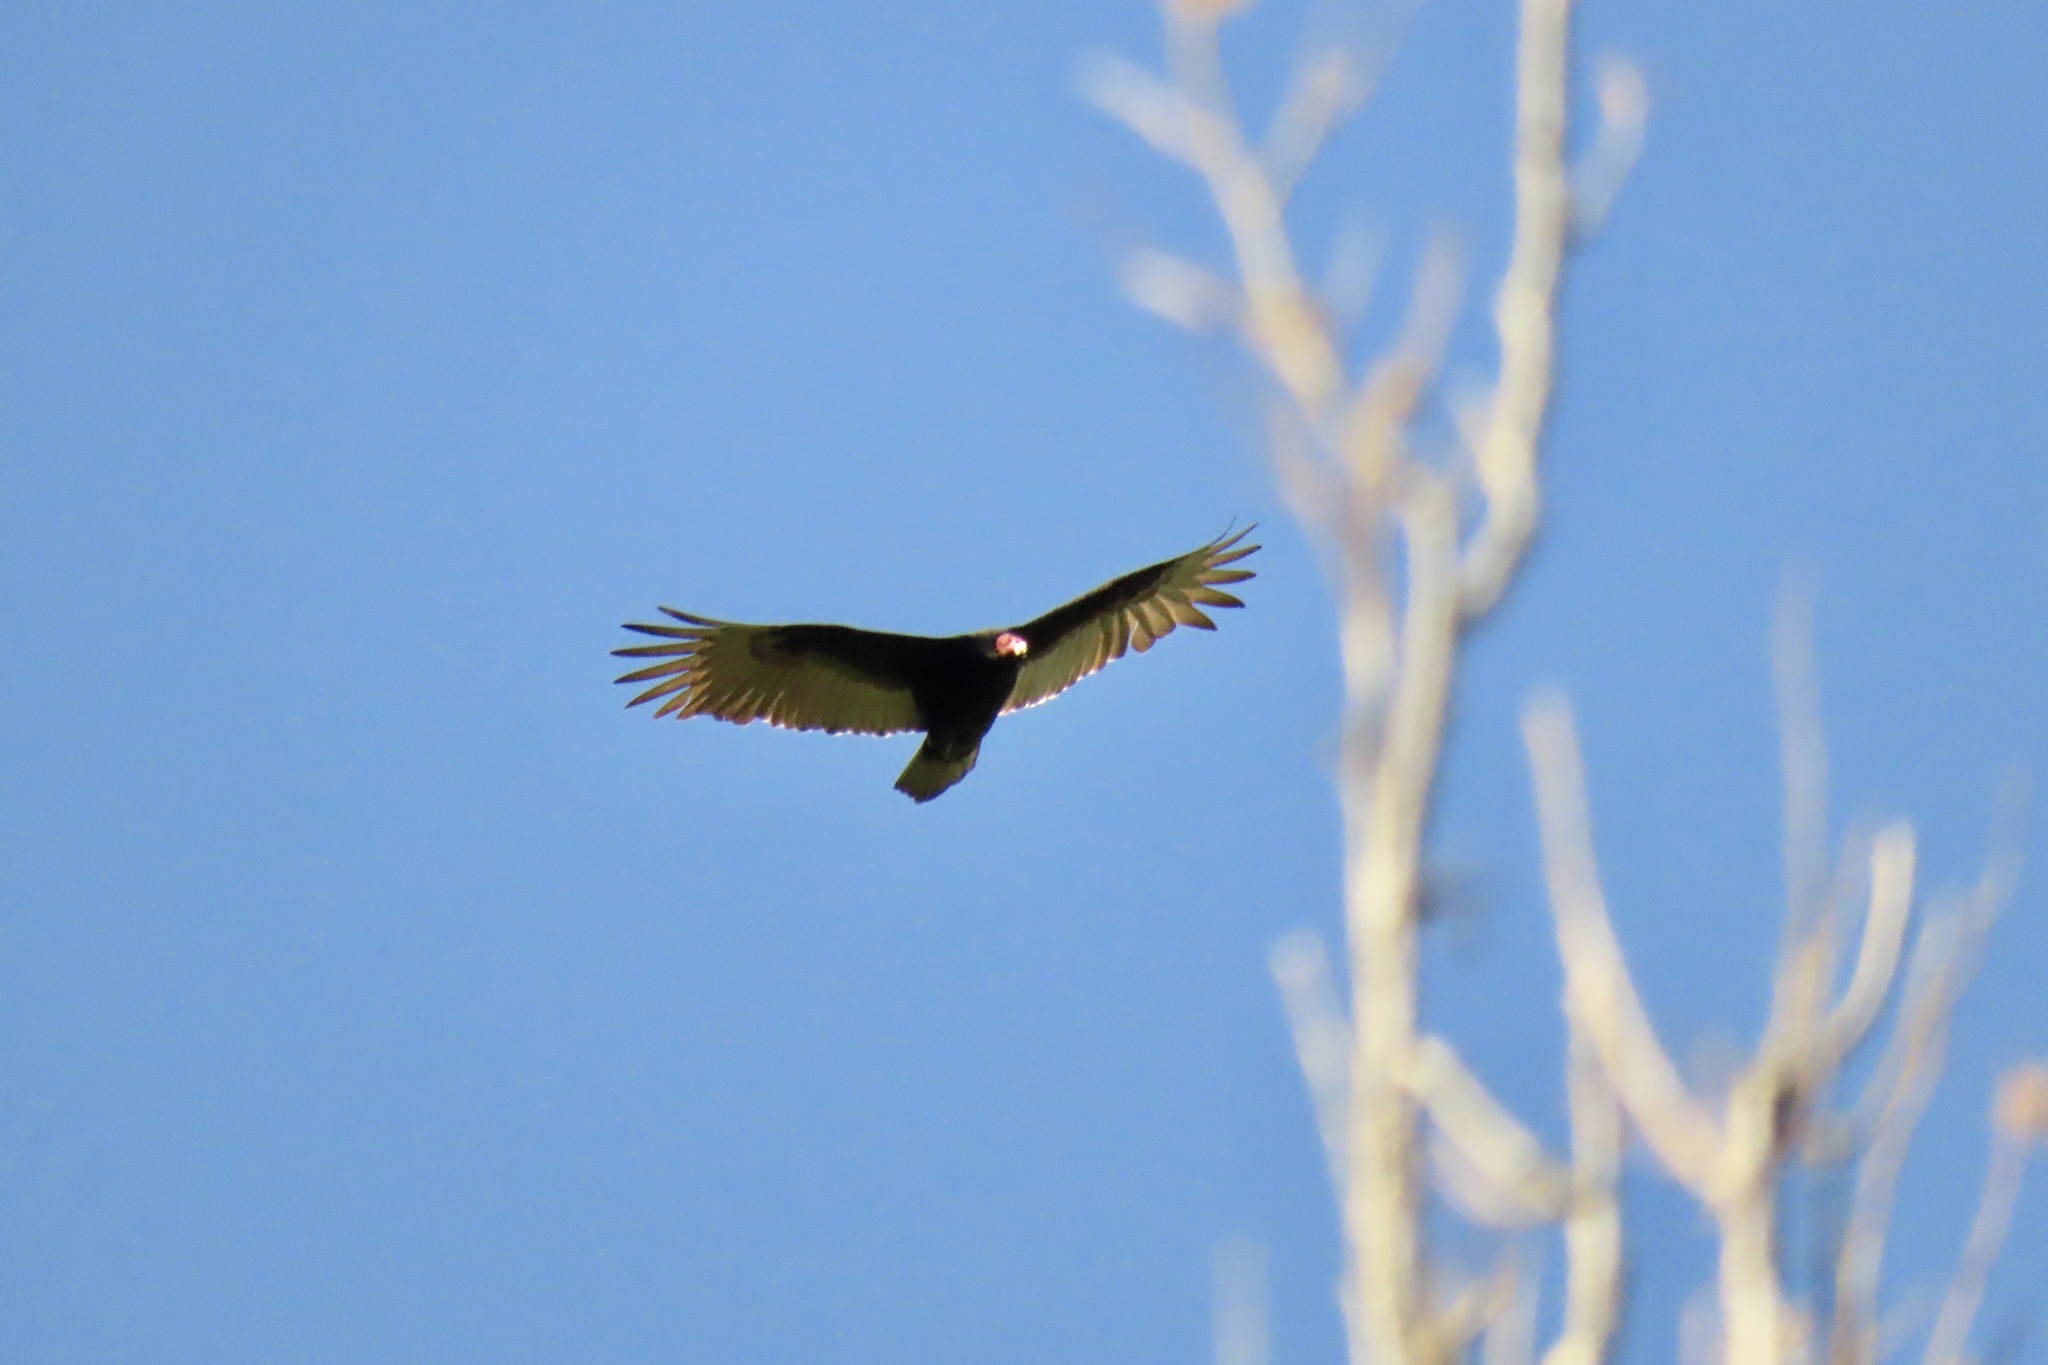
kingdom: Animalia
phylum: Chordata
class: Aves
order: Accipitriformes
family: Cathartidae
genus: Cathartes
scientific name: Cathartes aura
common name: Turkey vulture
